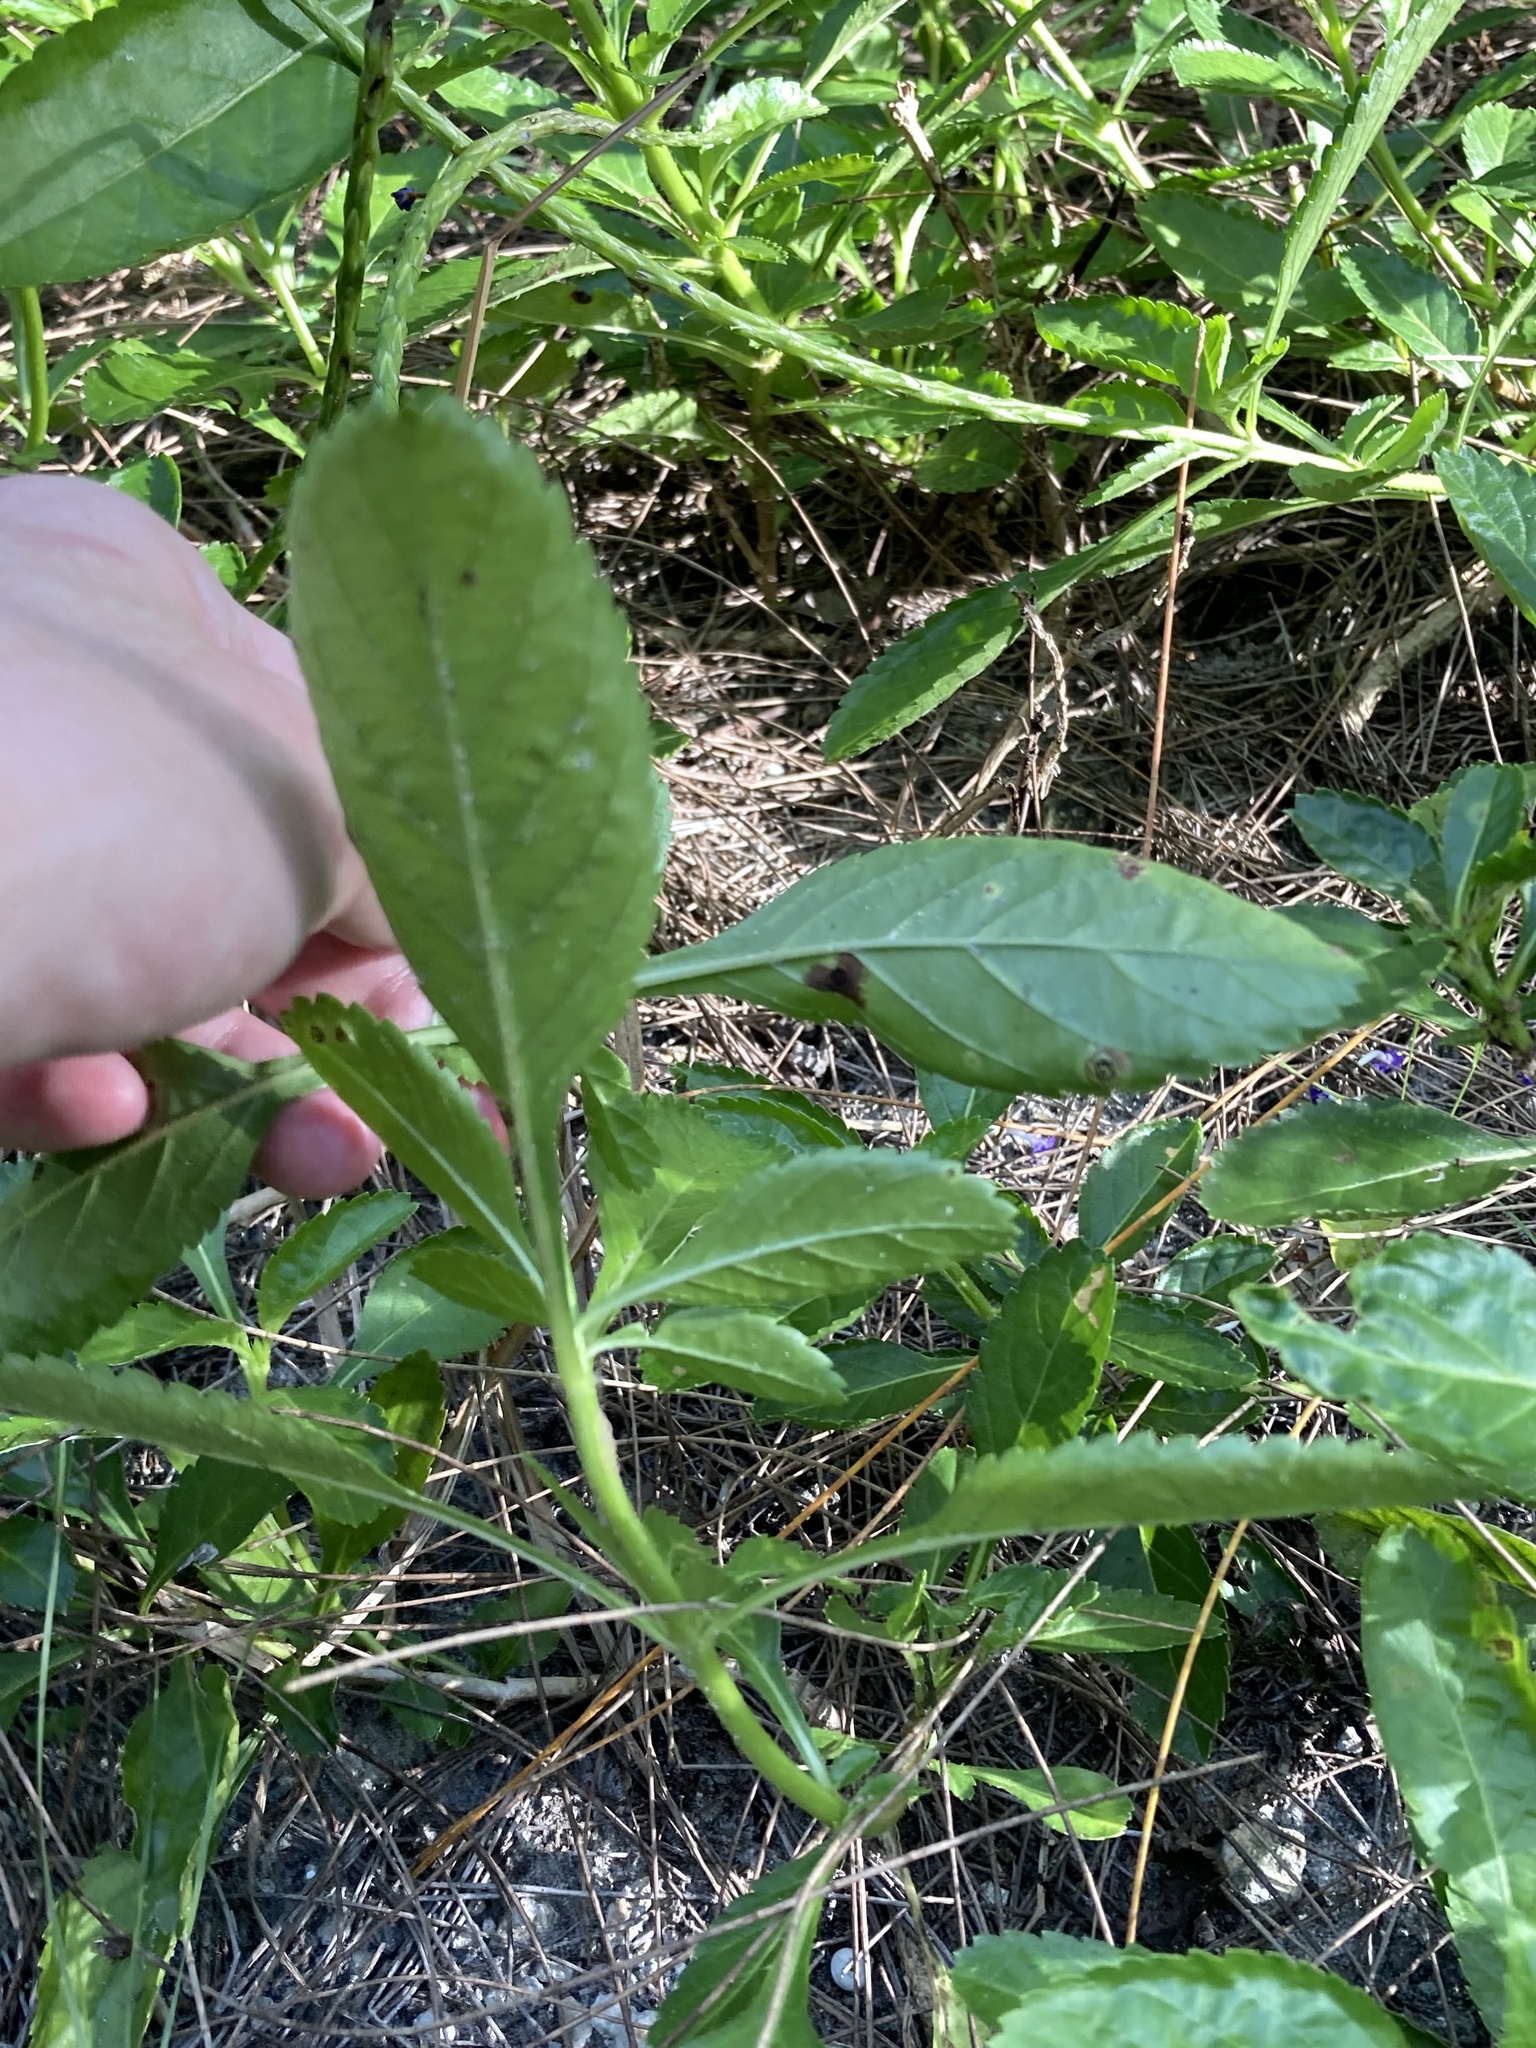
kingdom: Plantae
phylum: Tracheophyta
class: Magnoliopsida
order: Lamiales
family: Verbenaceae
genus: Stachytarpheta
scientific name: Stachytarpheta jamaicensis
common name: Light-blue snakeweed
